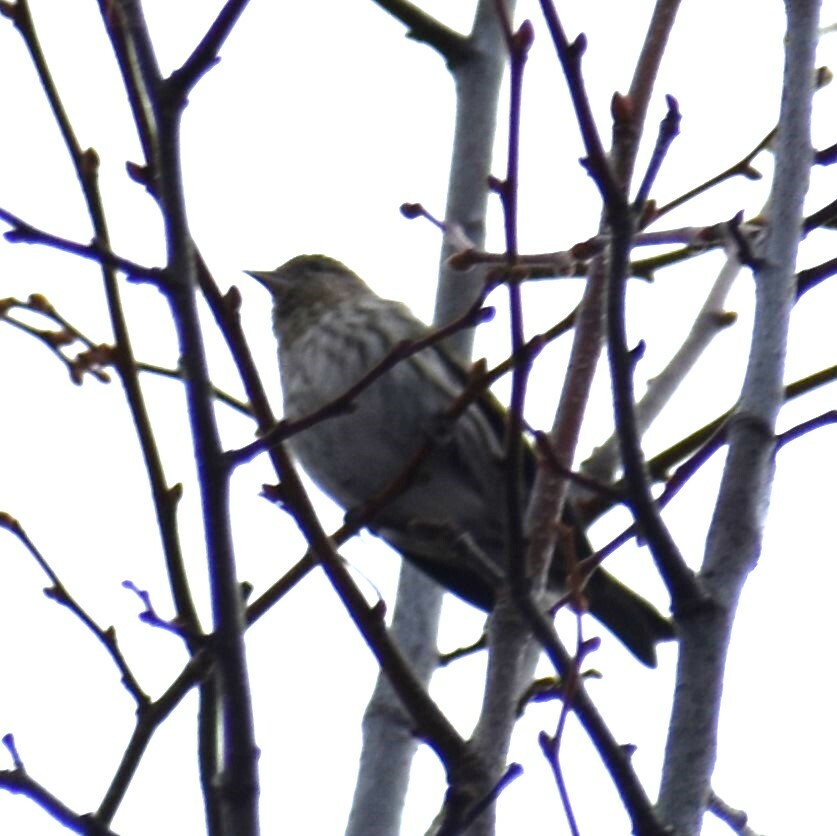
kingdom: Animalia
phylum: Chordata
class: Aves
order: Passeriformes
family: Fringillidae
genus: Spinus
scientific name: Spinus pinus
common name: Pine siskin
